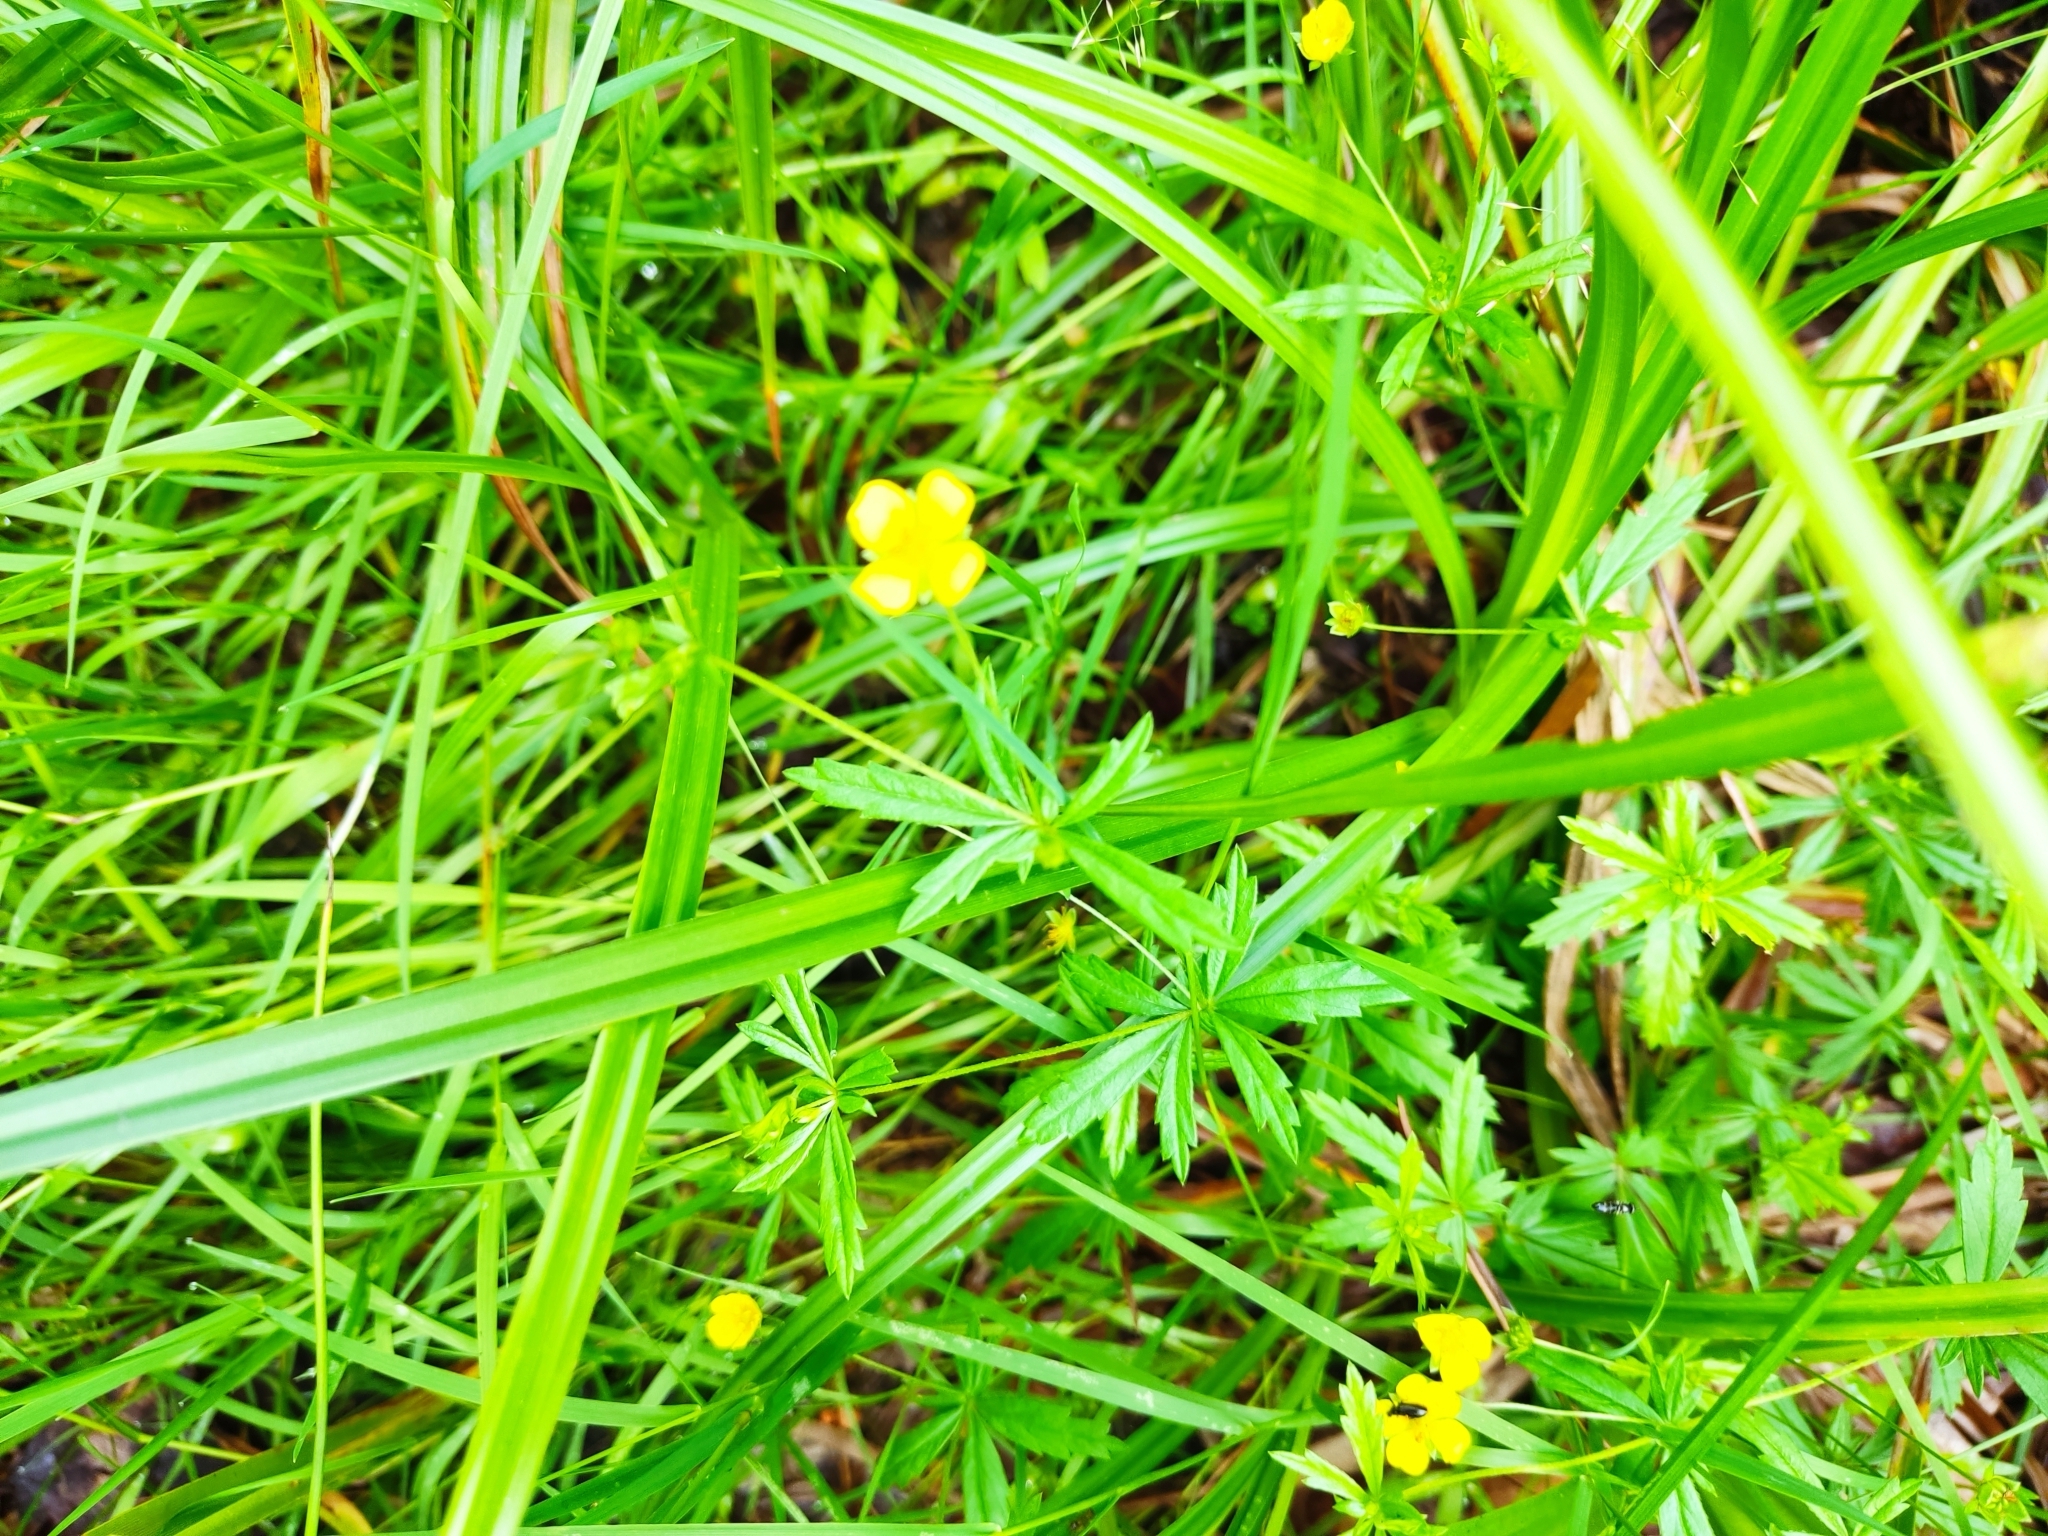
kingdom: Plantae
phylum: Tracheophyta
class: Magnoliopsida
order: Rosales
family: Rosaceae
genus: Potentilla
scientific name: Potentilla erecta
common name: Tormentil
